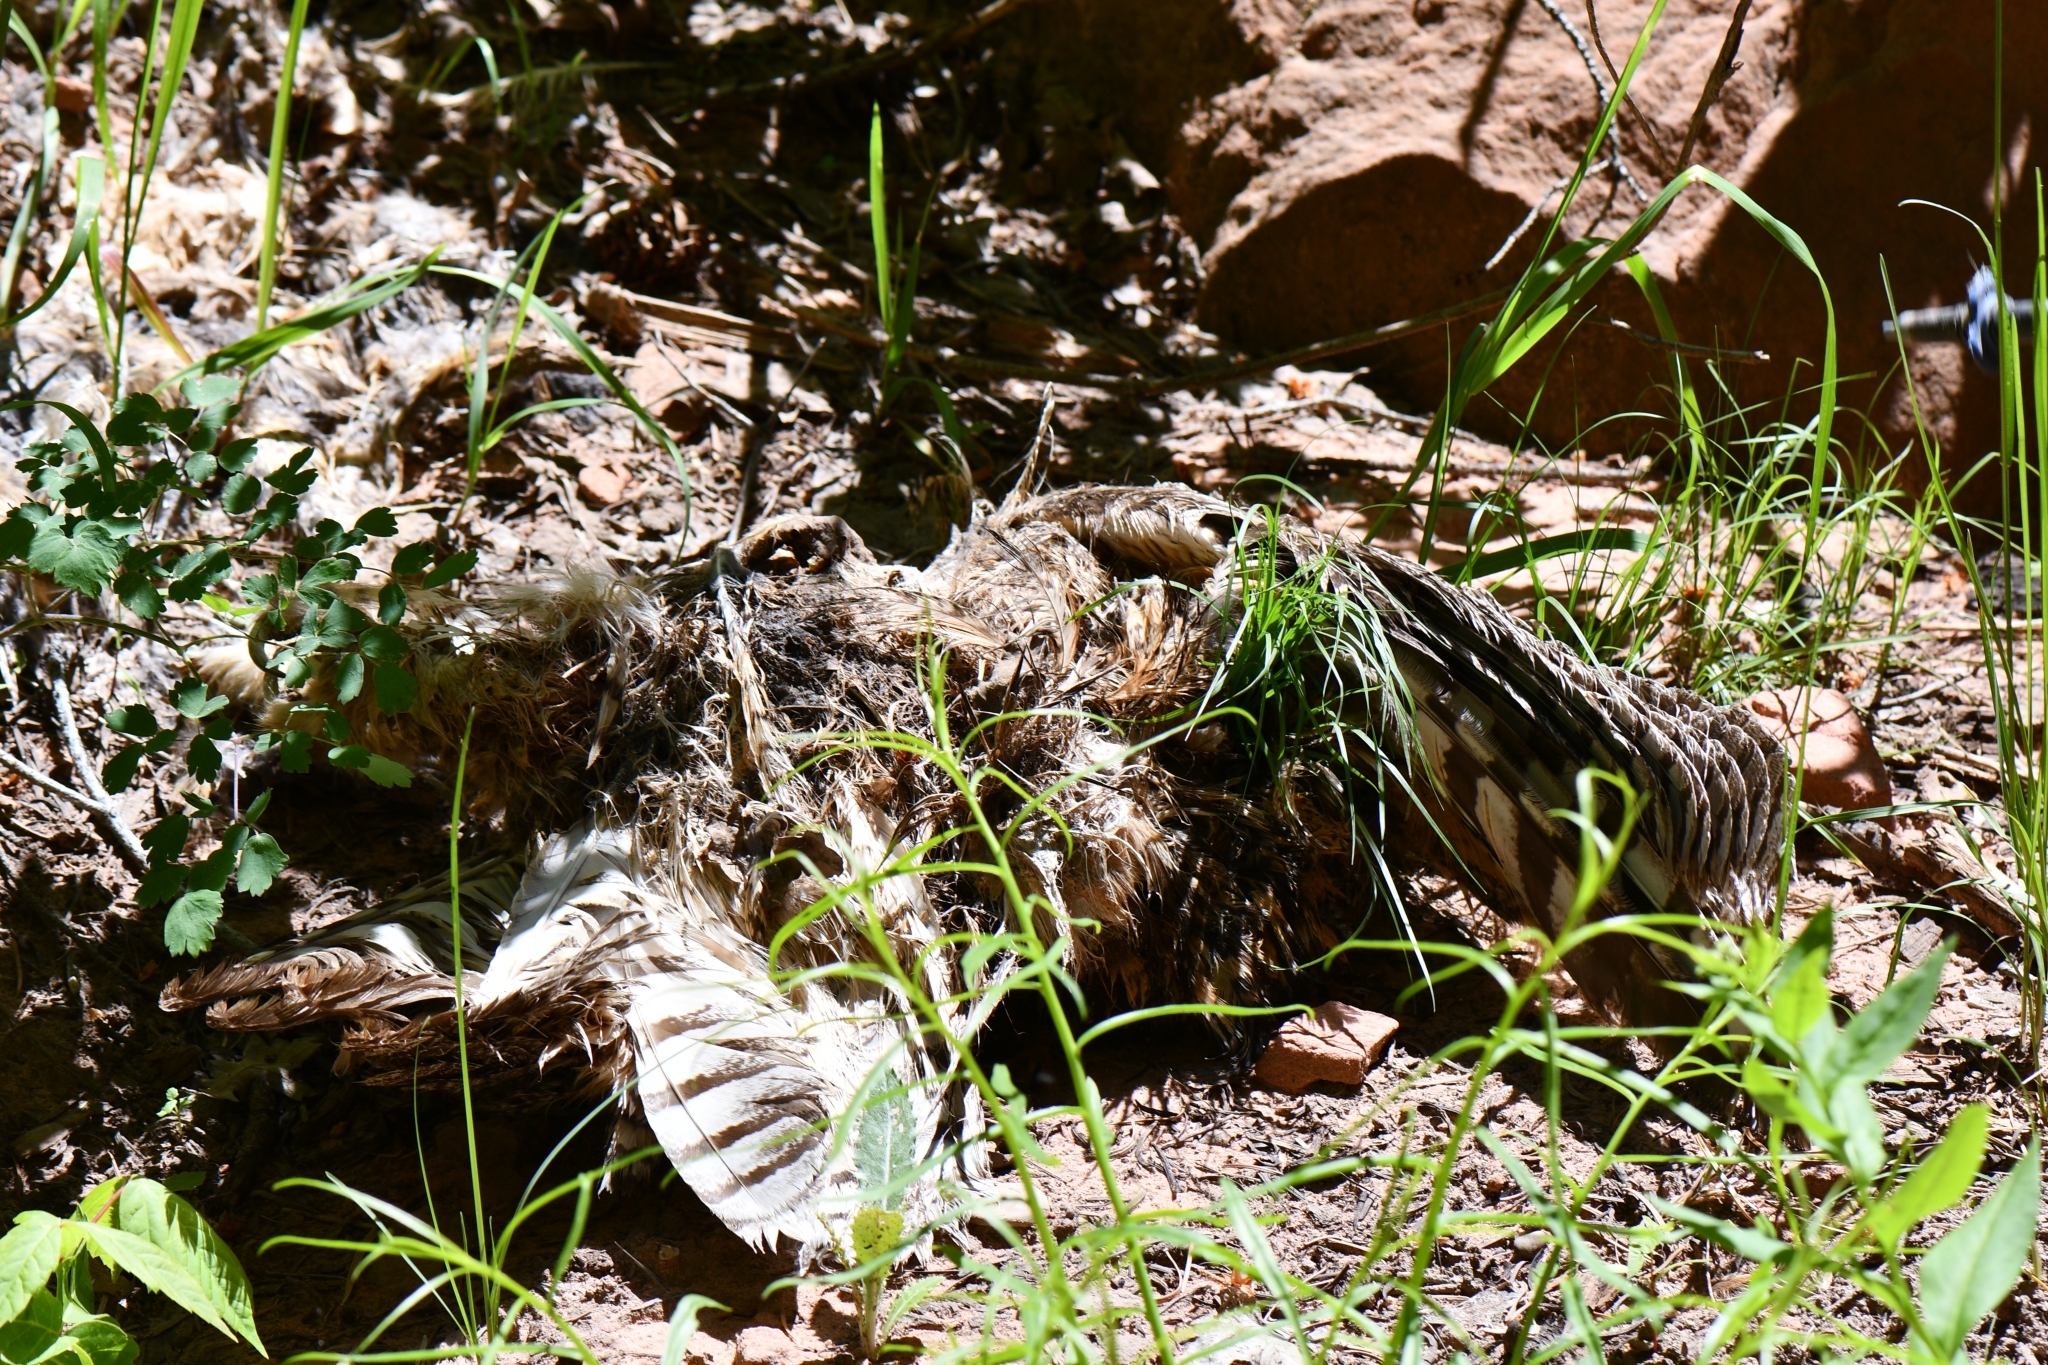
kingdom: Animalia
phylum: Chordata
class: Aves
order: Strigiformes
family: Strigidae
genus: Bubo
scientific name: Bubo virginianus
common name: Great horned owl
